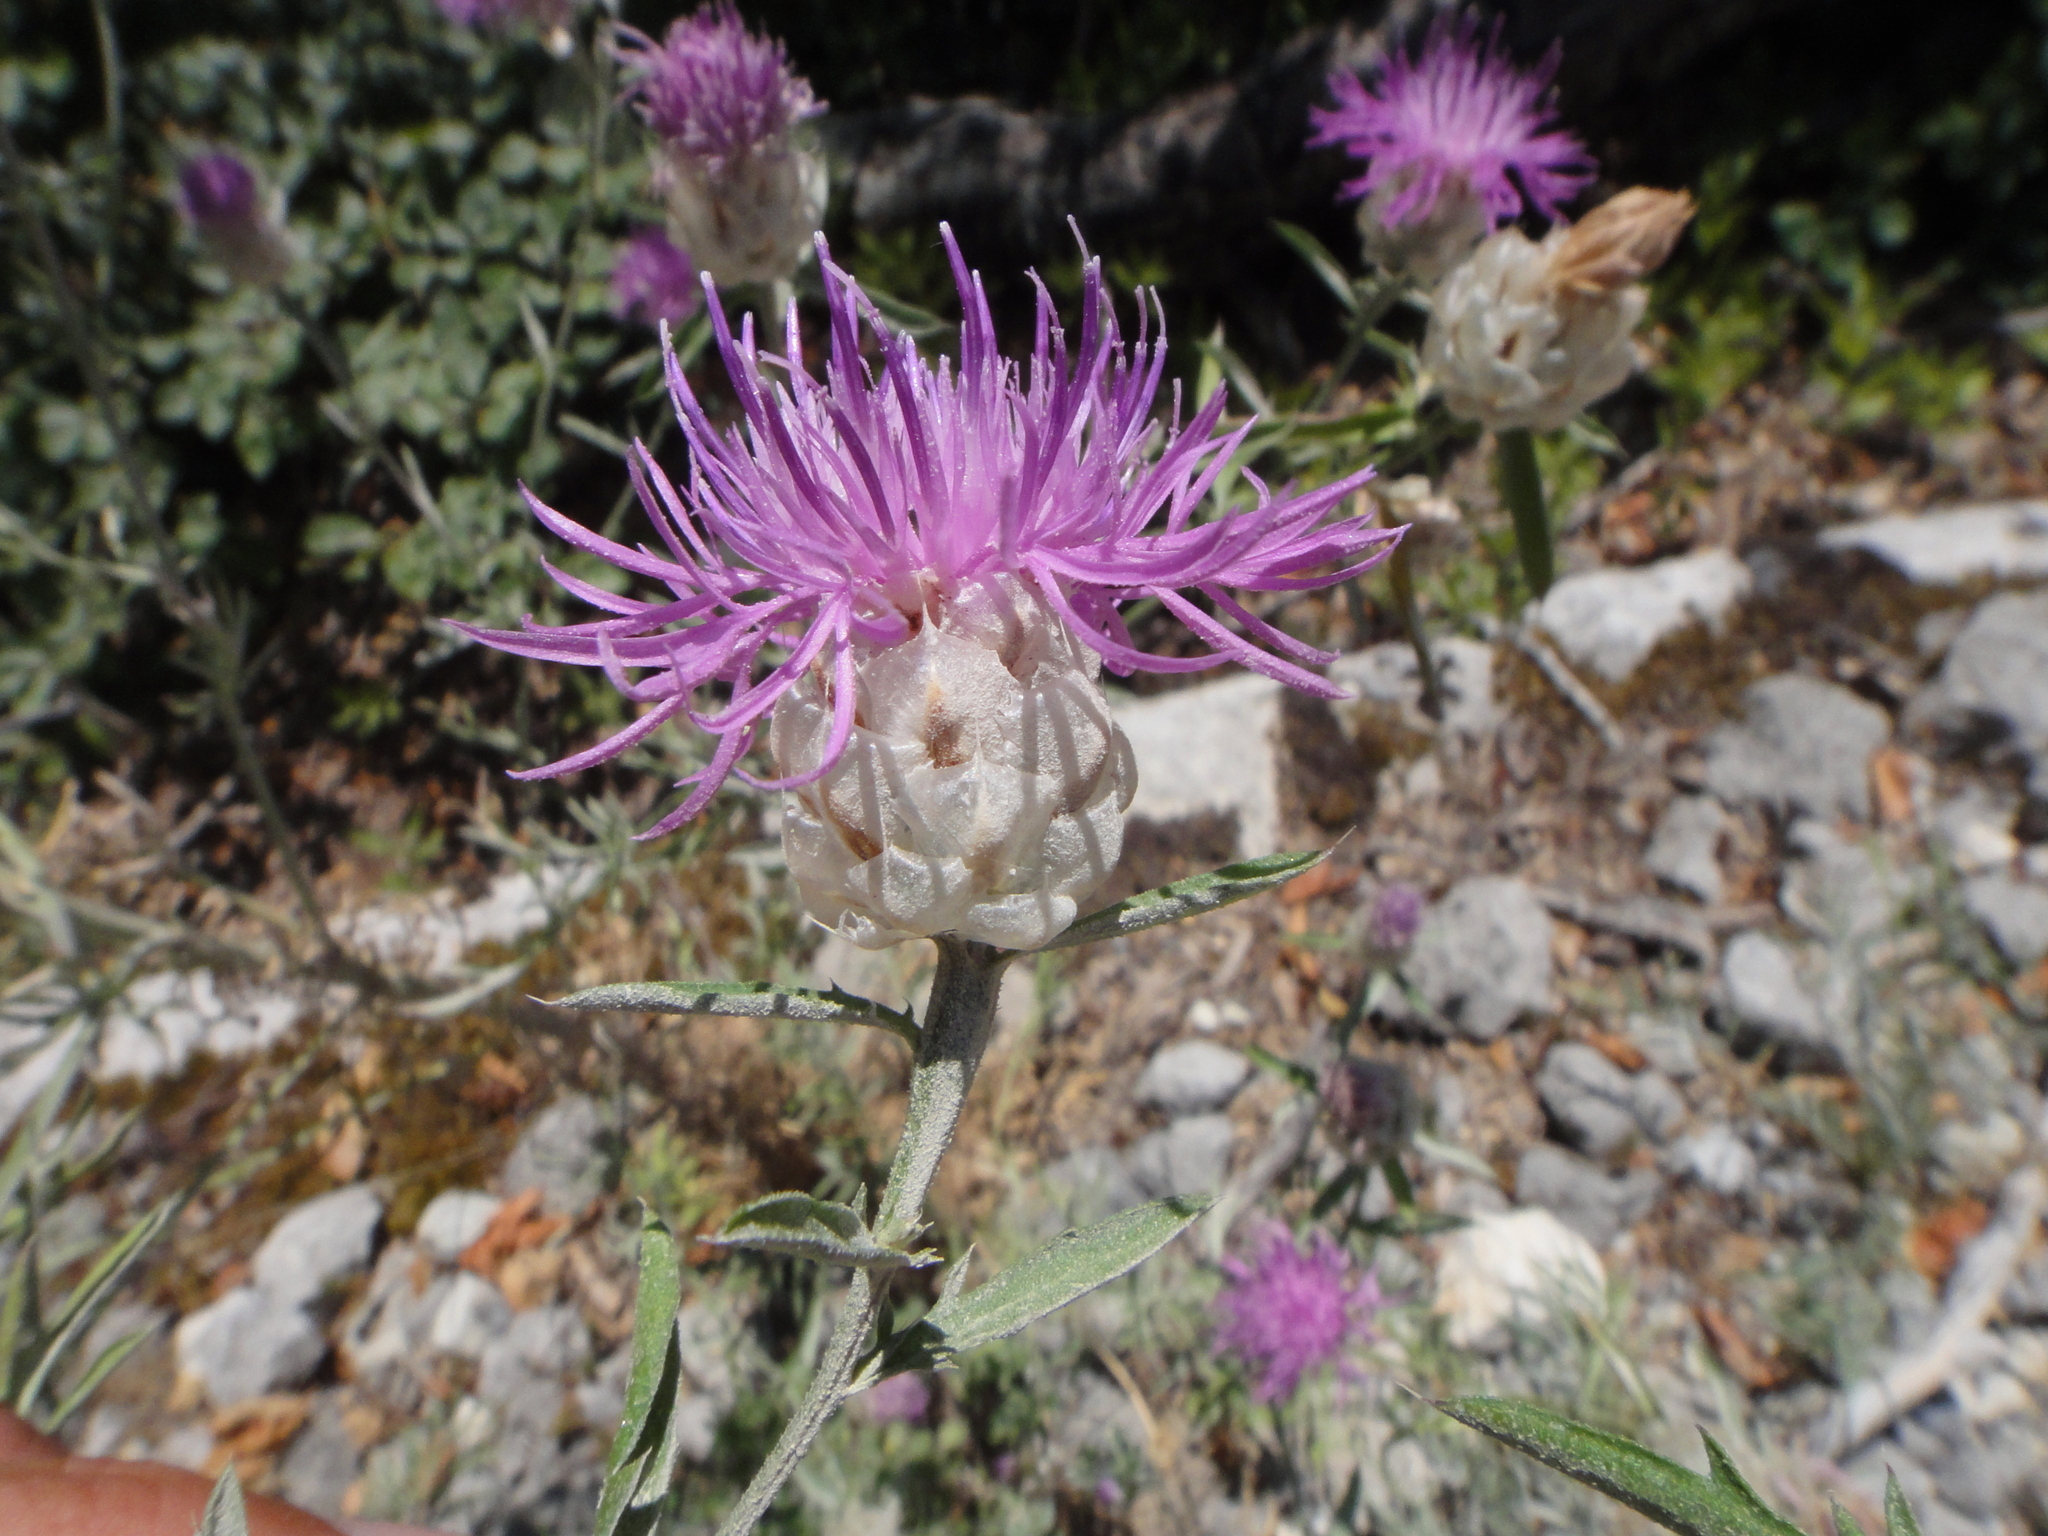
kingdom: Plantae
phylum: Tracheophyta
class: Magnoliopsida
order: Asterales
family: Asteraceae
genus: Centaurea
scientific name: Centaurea deusta
